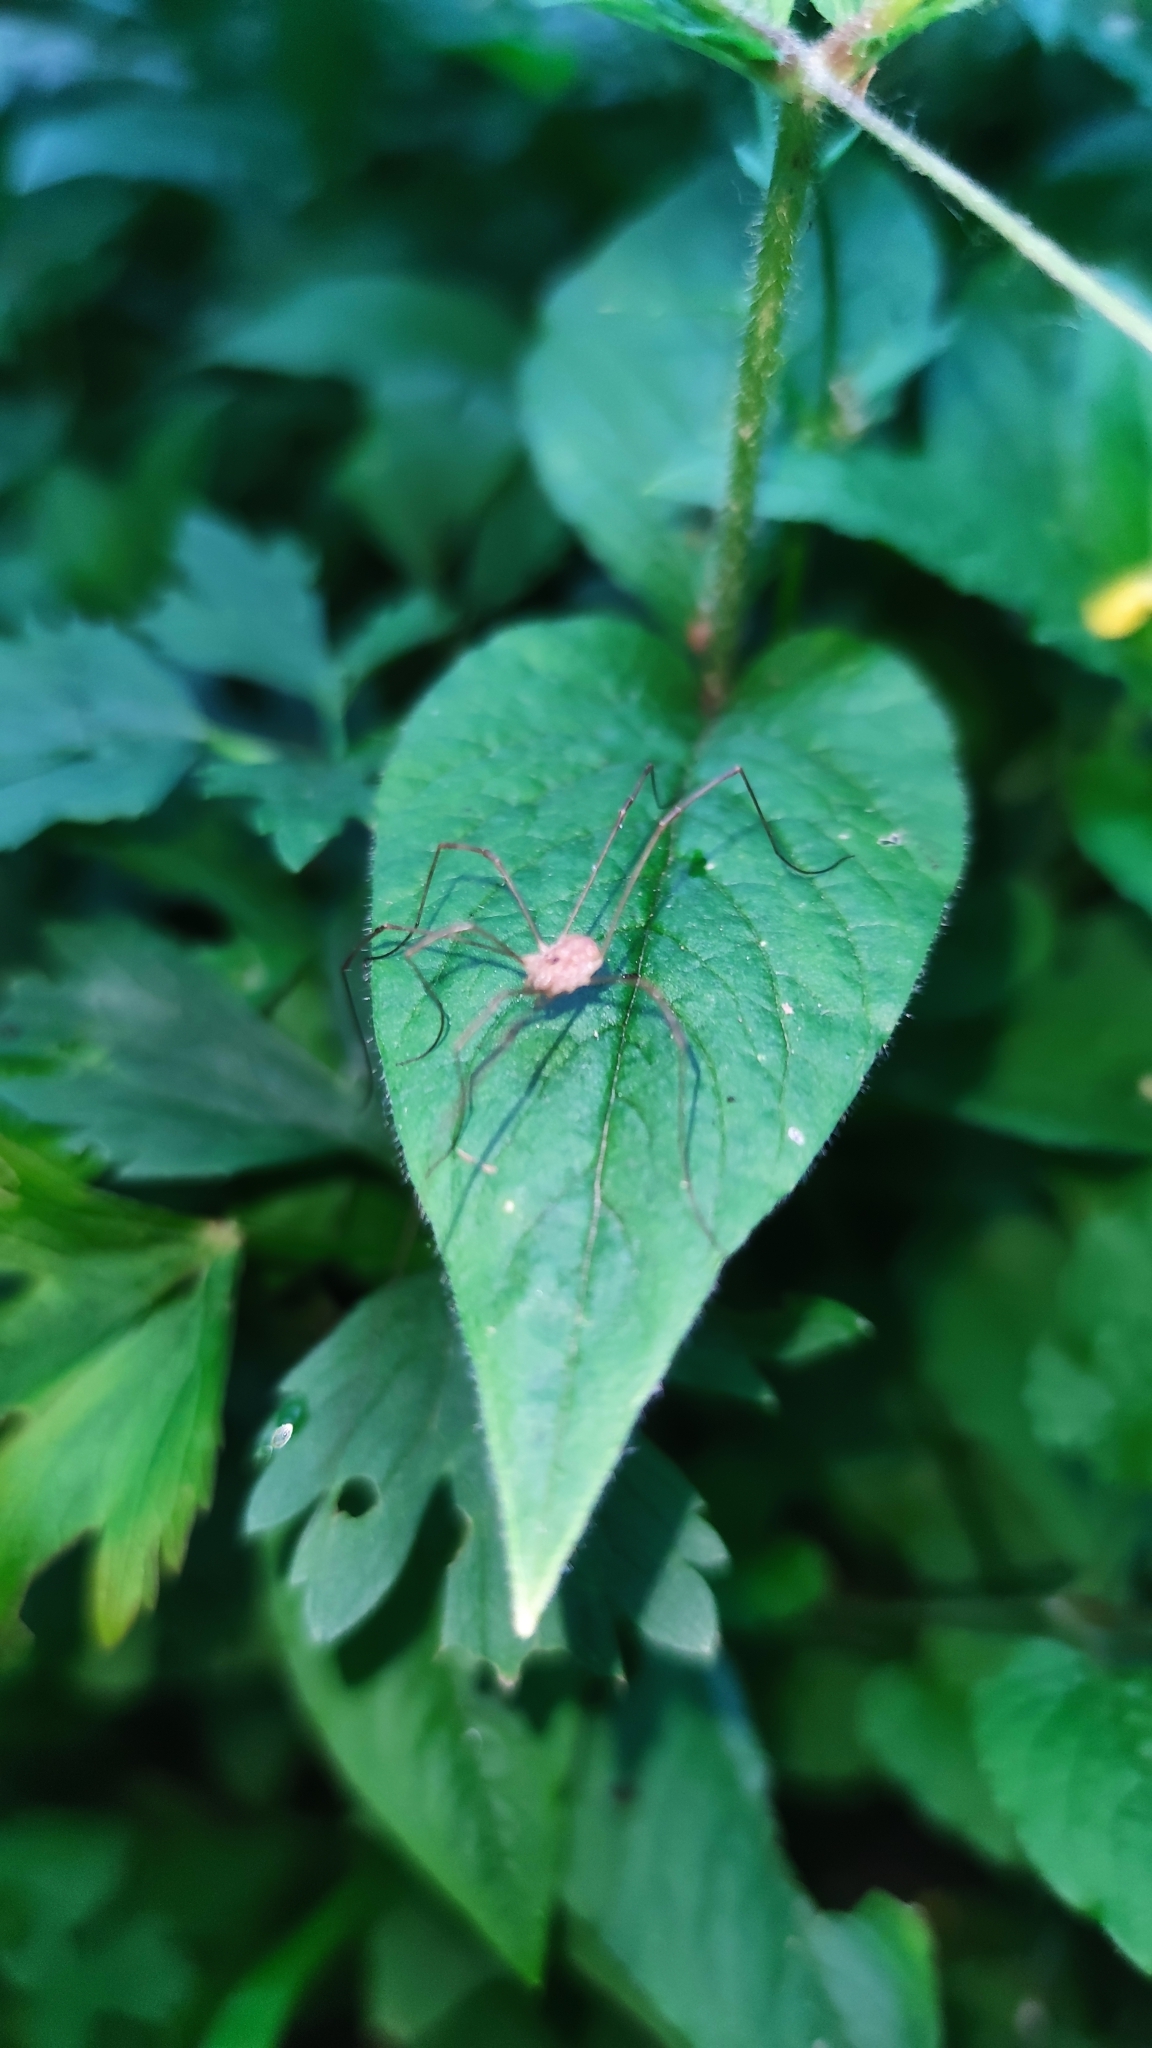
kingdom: Animalia
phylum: Arthropoda
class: Arachnida
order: Opiliones
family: Phalangiidae
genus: Rilaena
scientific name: Rilaena triangularis
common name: Spring harvestman
